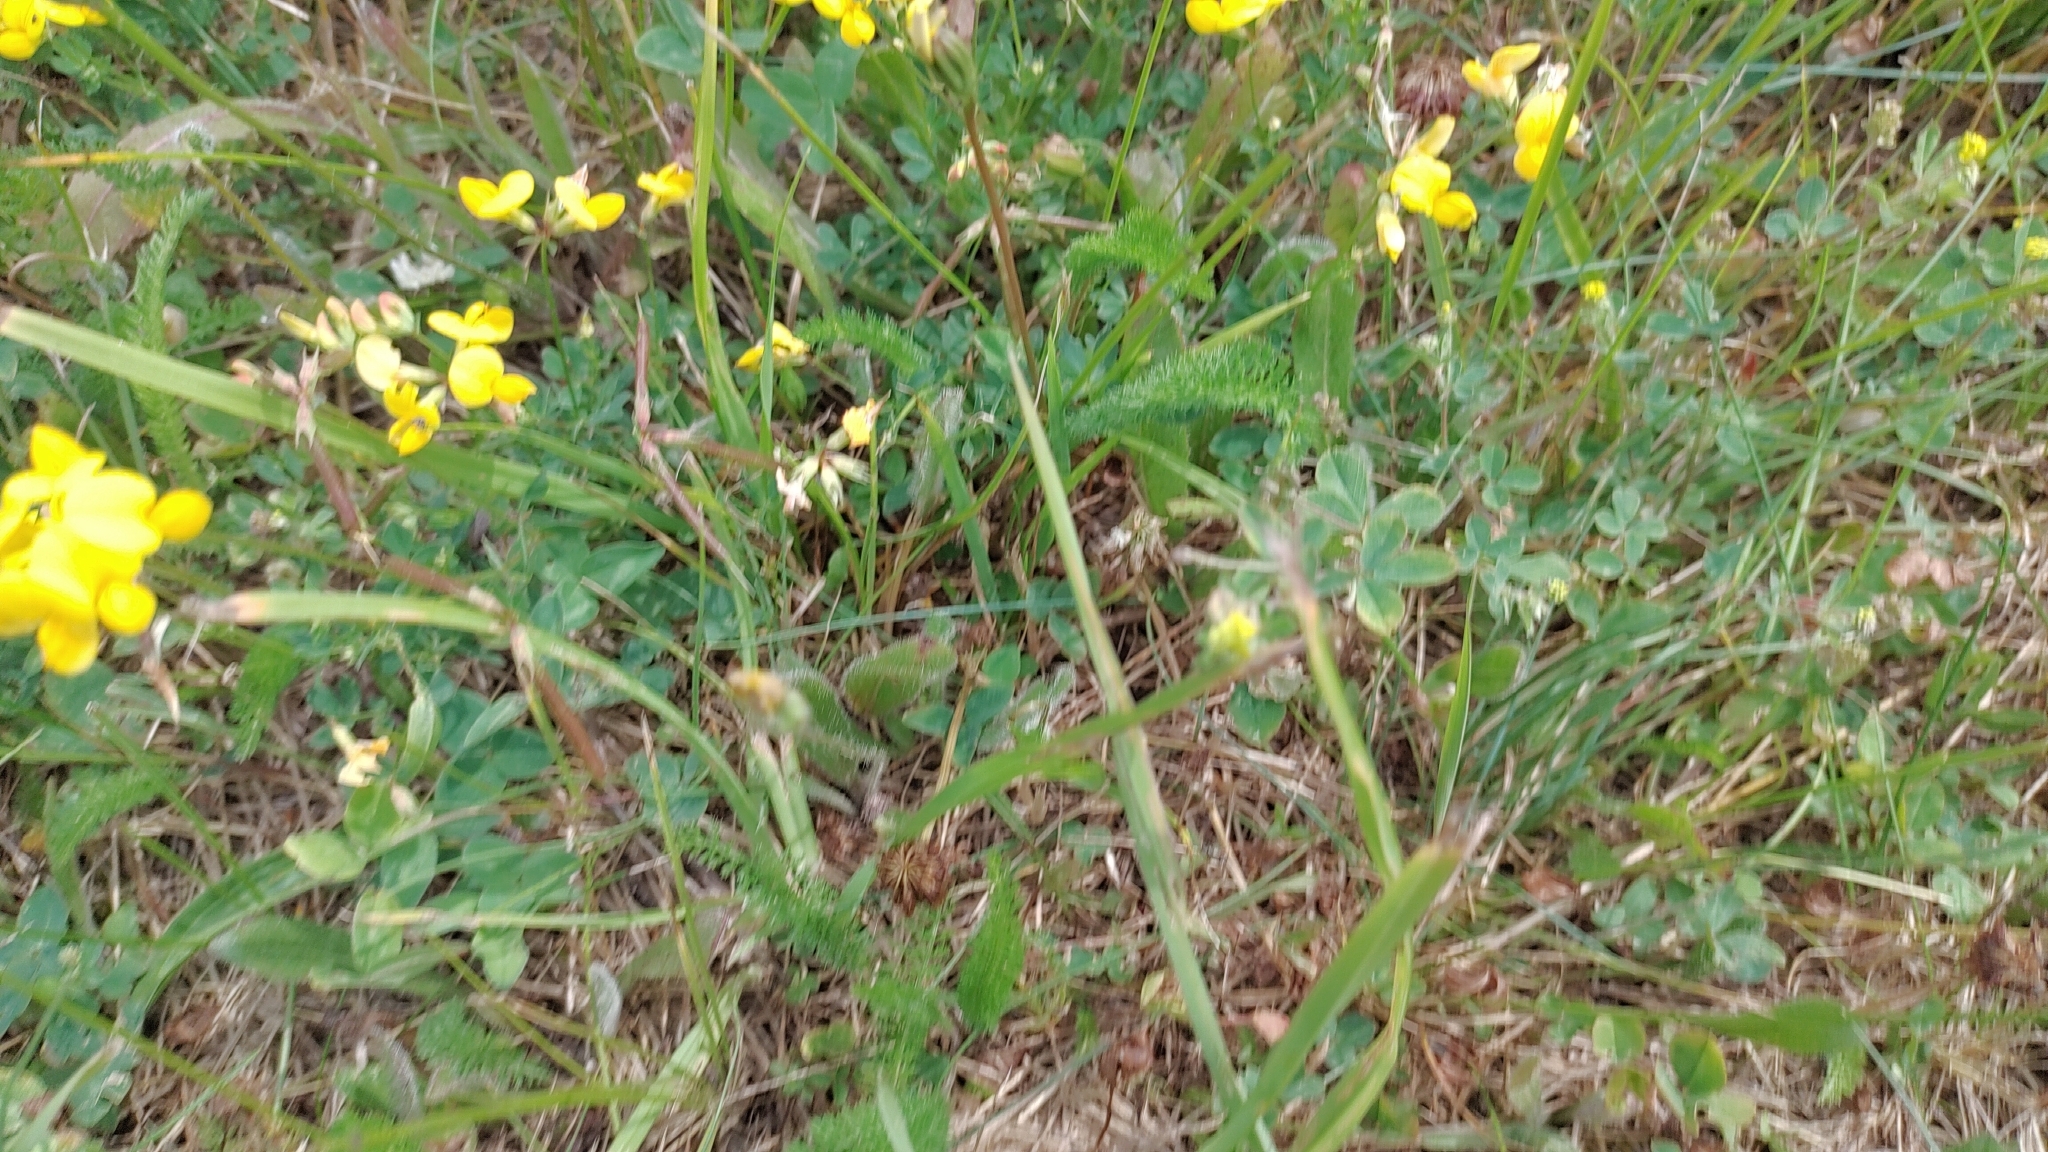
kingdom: Plantae
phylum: Tracheophyta
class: Magnoliopsida
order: Fabales
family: Fabaceae
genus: Lotus
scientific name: Lotus corniculatus
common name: Common bird's-foot-trefoil
